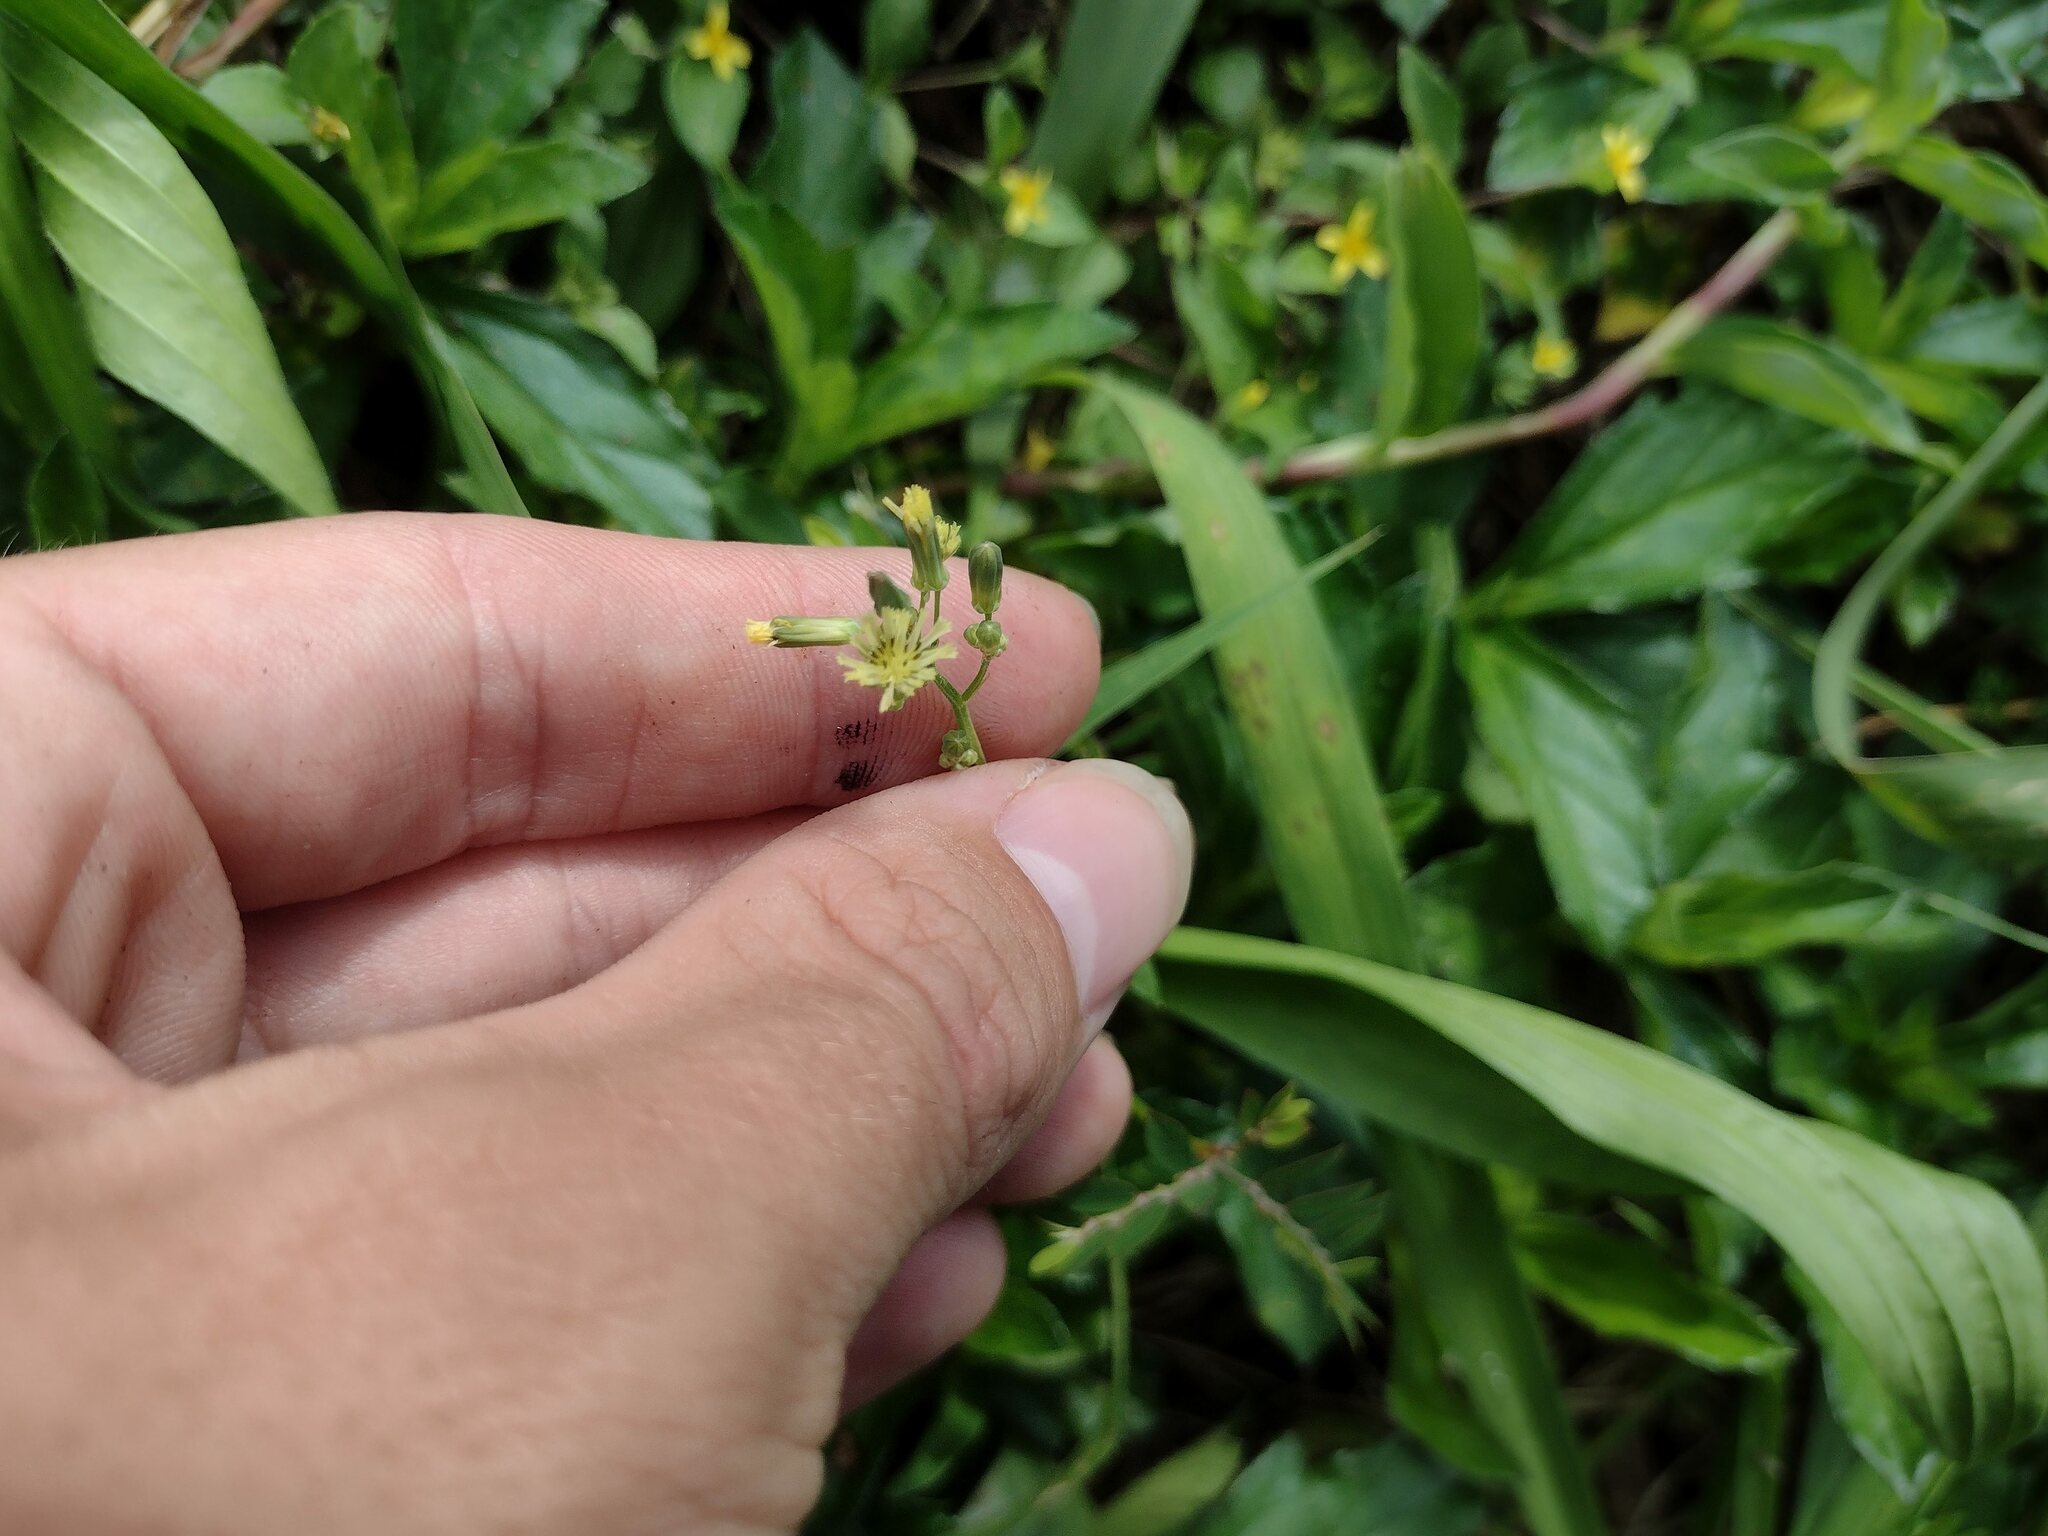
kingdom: Plantae
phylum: Tracheophyta
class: Magnoliopsida
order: Asterales
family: Asteraceae
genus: Youngia
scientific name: Youngia japonica
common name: Oriental false hawksbeard
